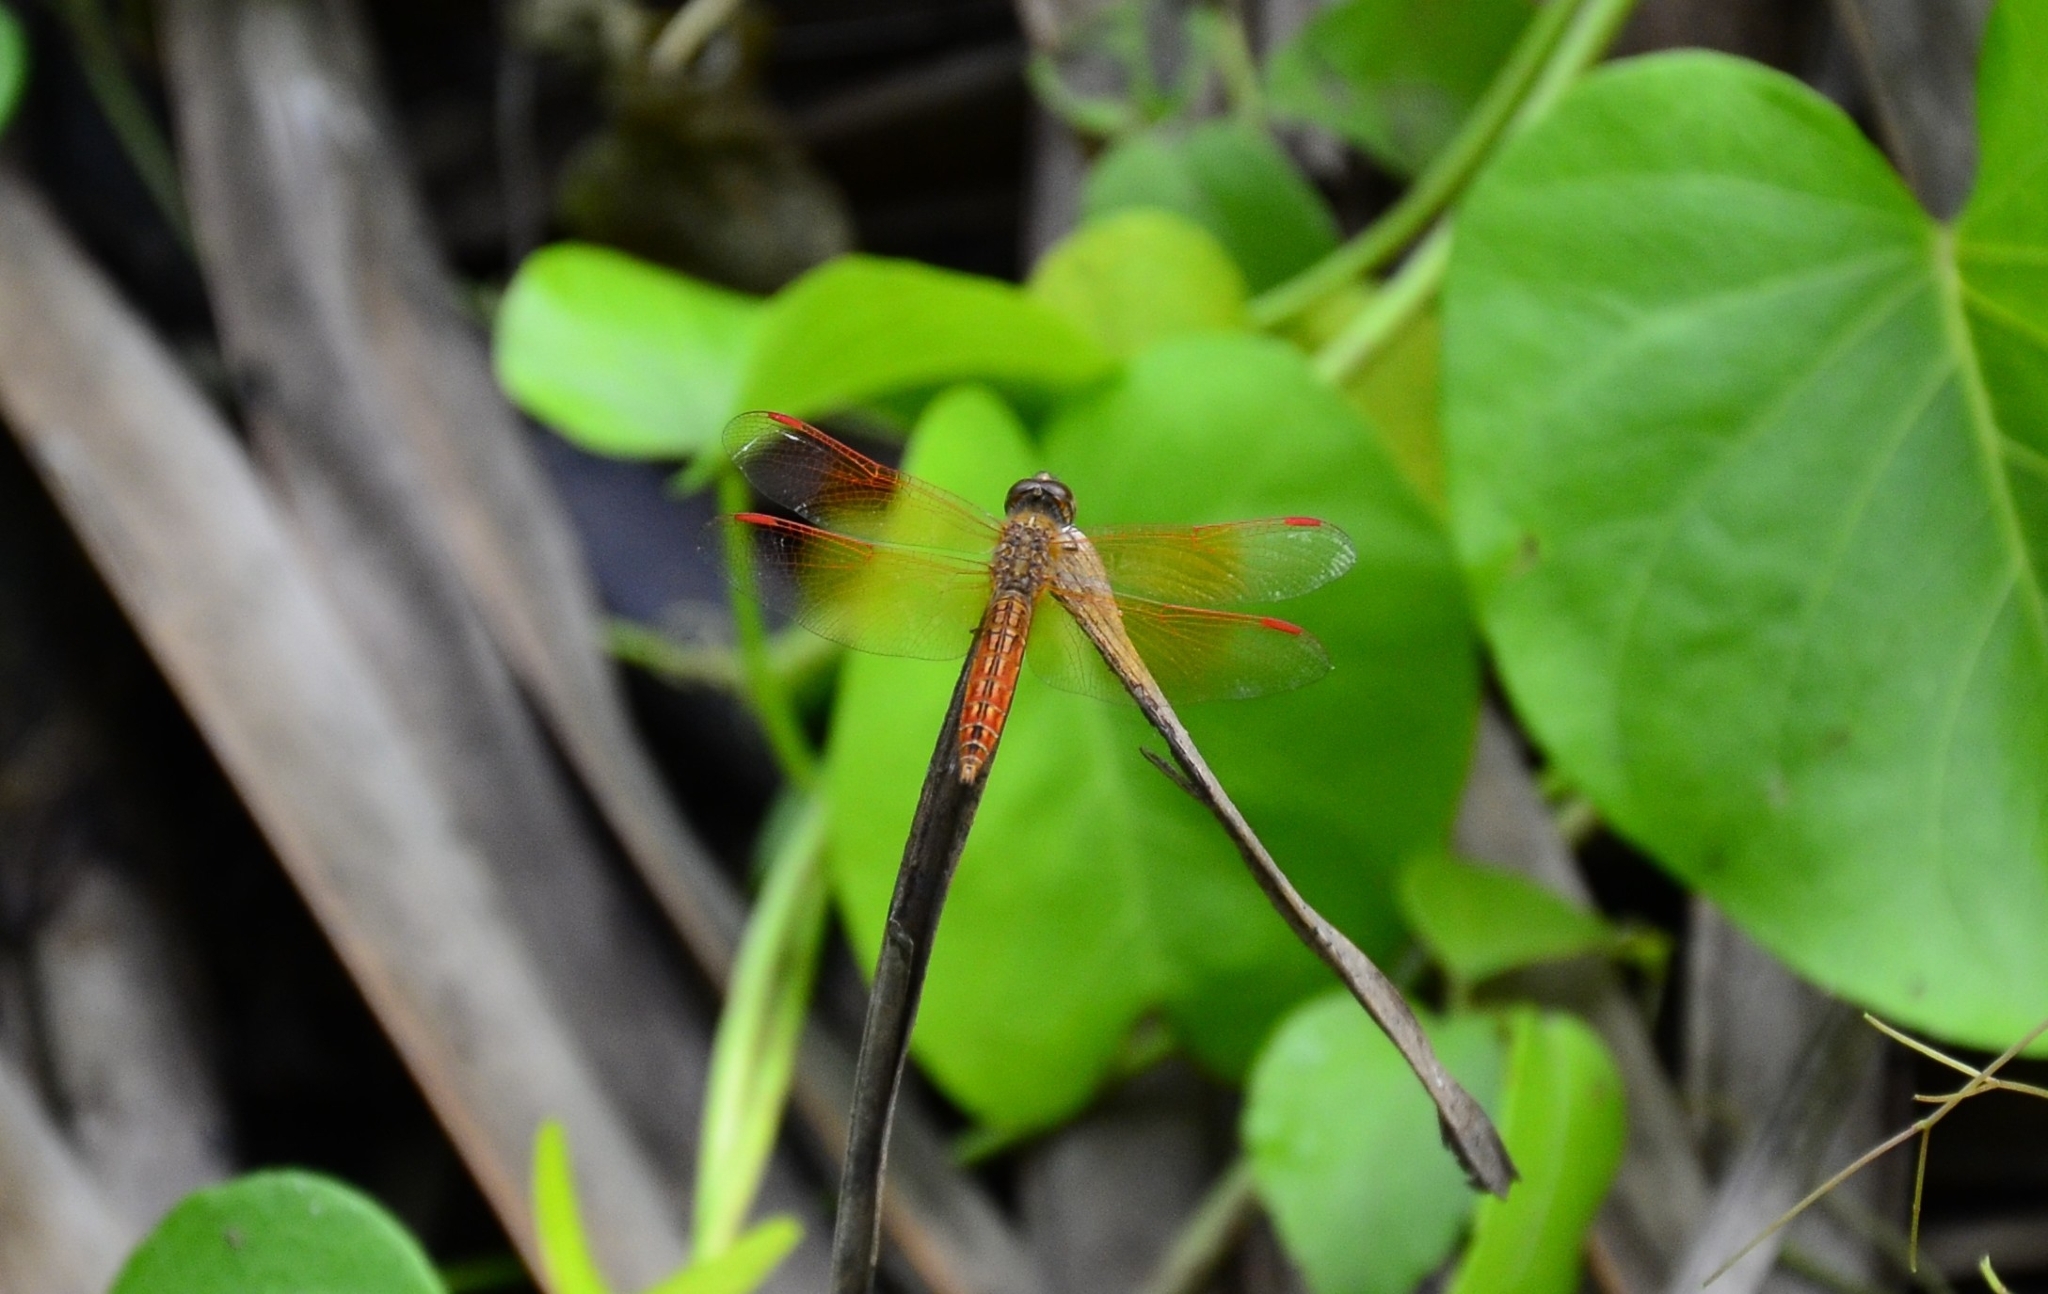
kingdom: Animalia
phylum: Arthropoda
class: Insecta
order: Odonata
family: Libellulidae
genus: Brachythemis
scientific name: Brachythemis contaminata
